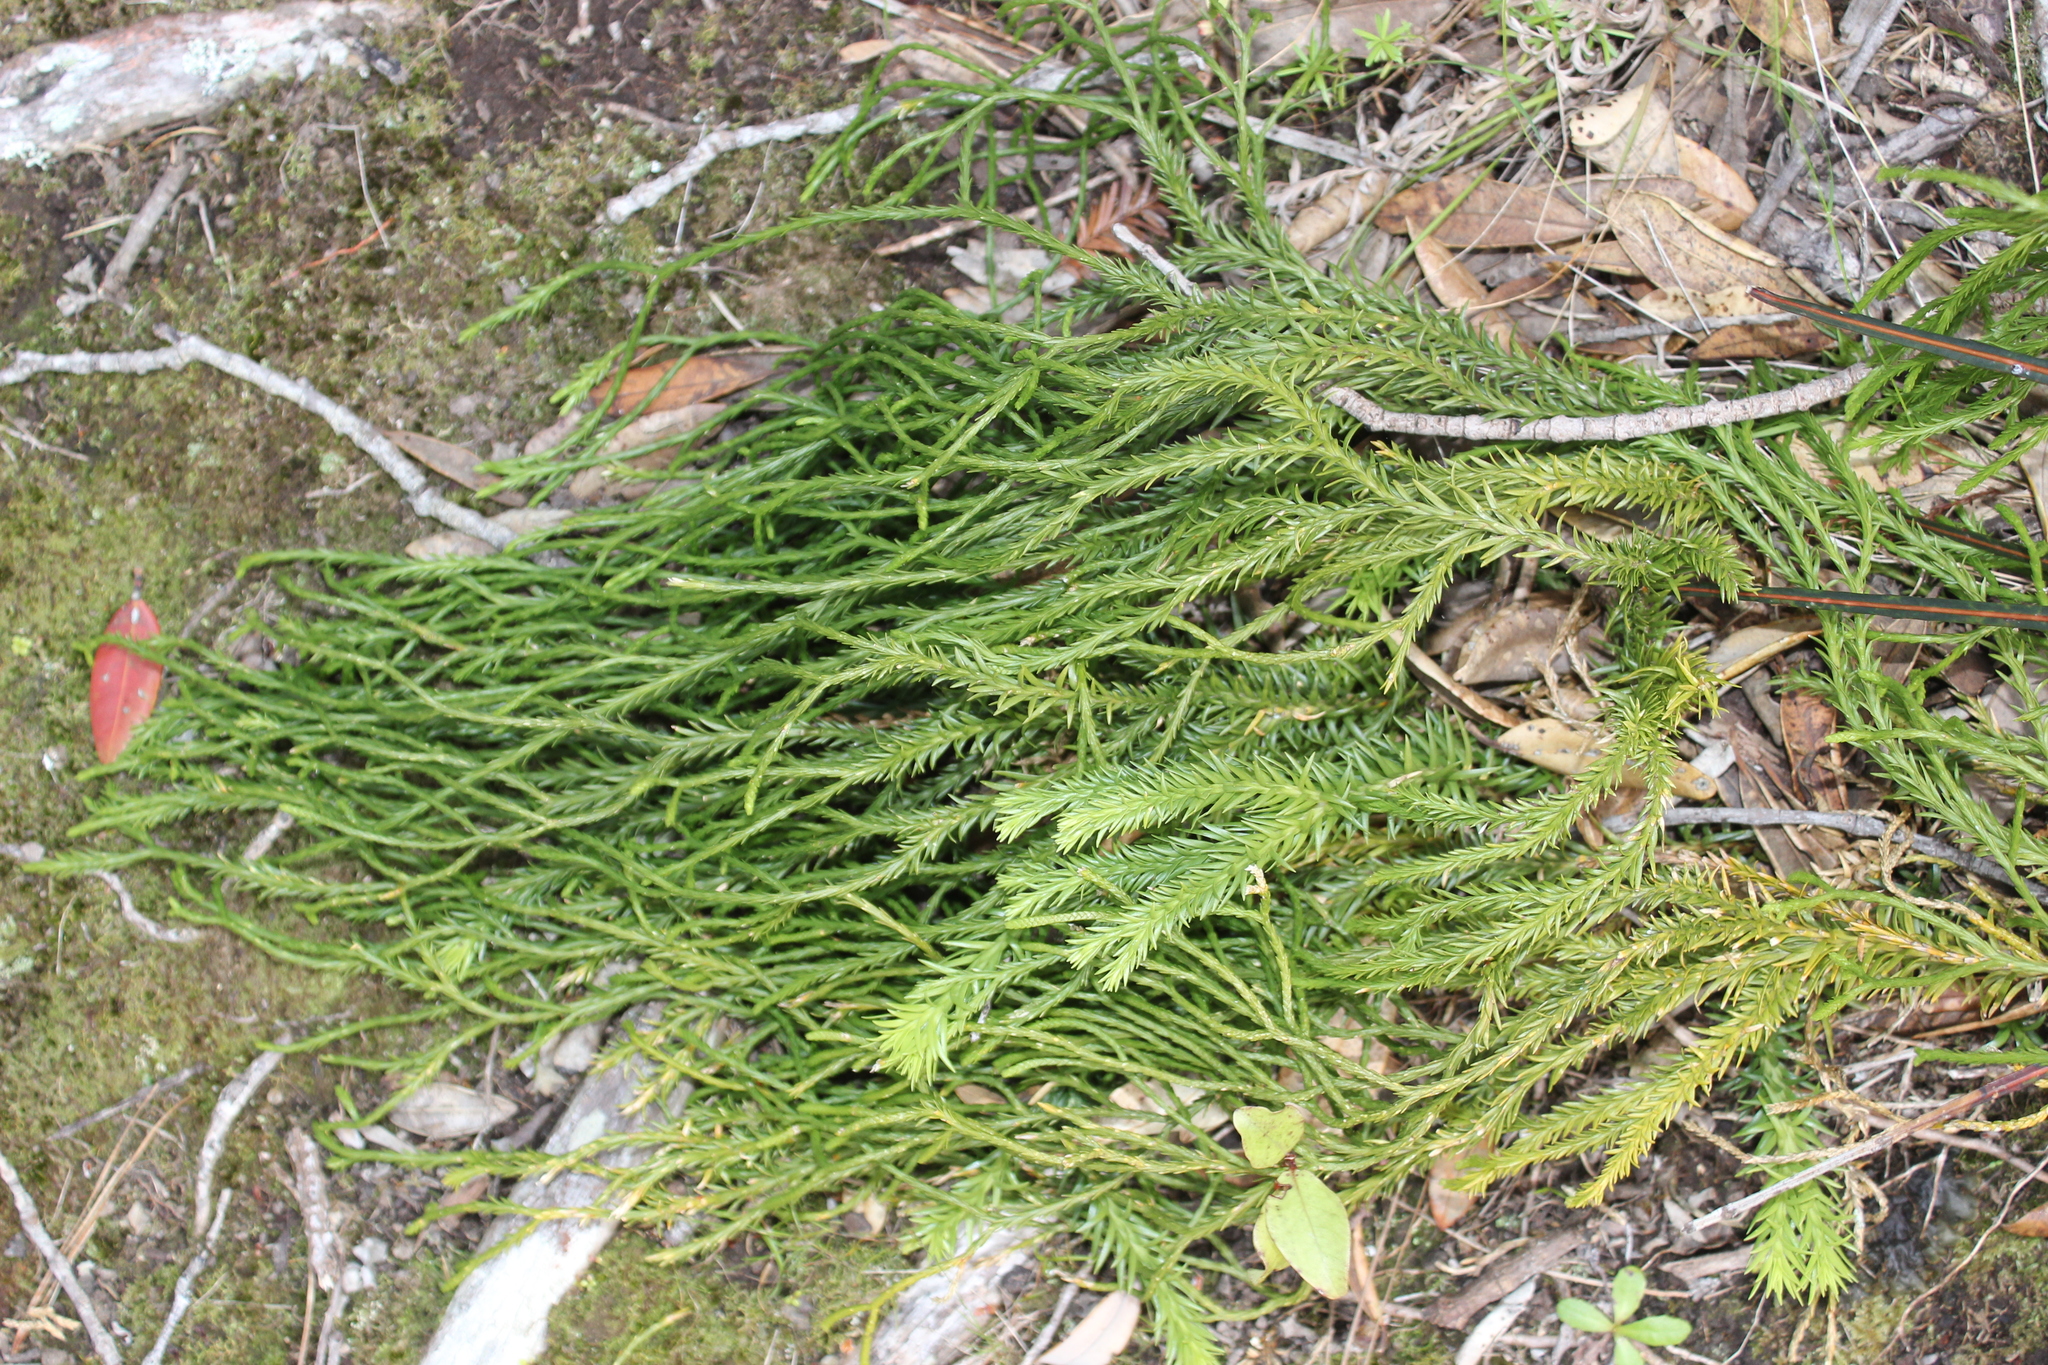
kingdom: Plantae
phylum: Tracheophyta
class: Lycopodiopsida
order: Lycopodiales
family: Lycopodiaceae
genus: Phlegmariurus
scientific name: Phlegmariurus billardierei
